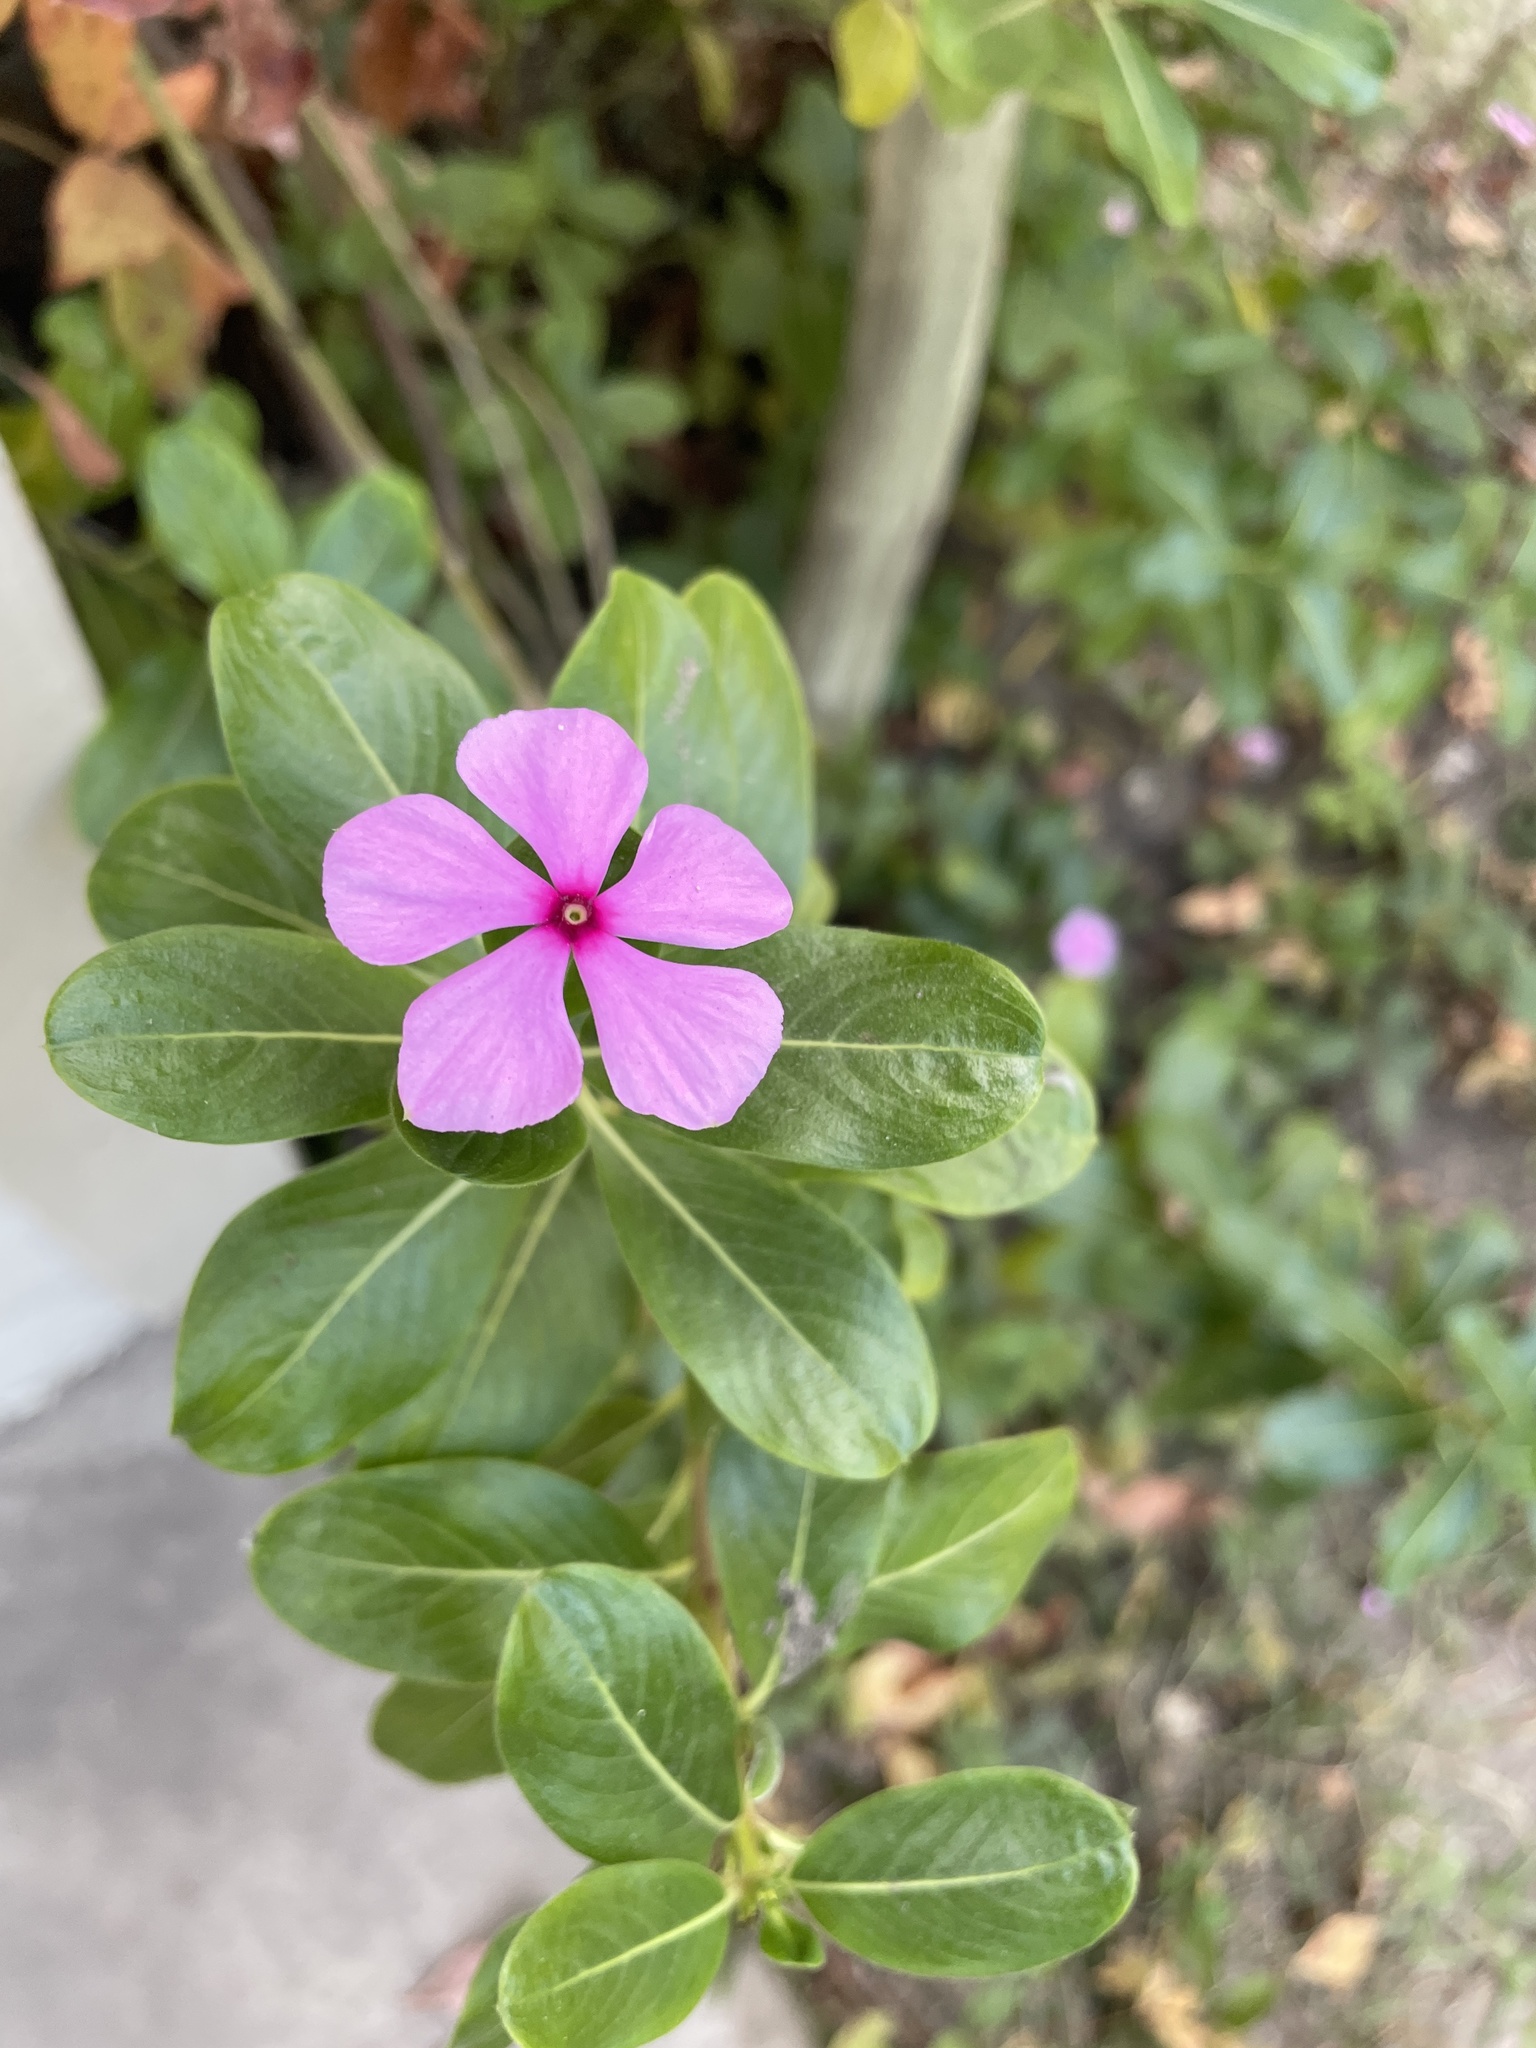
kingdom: Plantae
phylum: Tracheophyta
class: Magnoliopsida
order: Gentianales
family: Apocynaceae
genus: Catharanthus
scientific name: Catharanthus roseus
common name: Madagascar periwinkle
